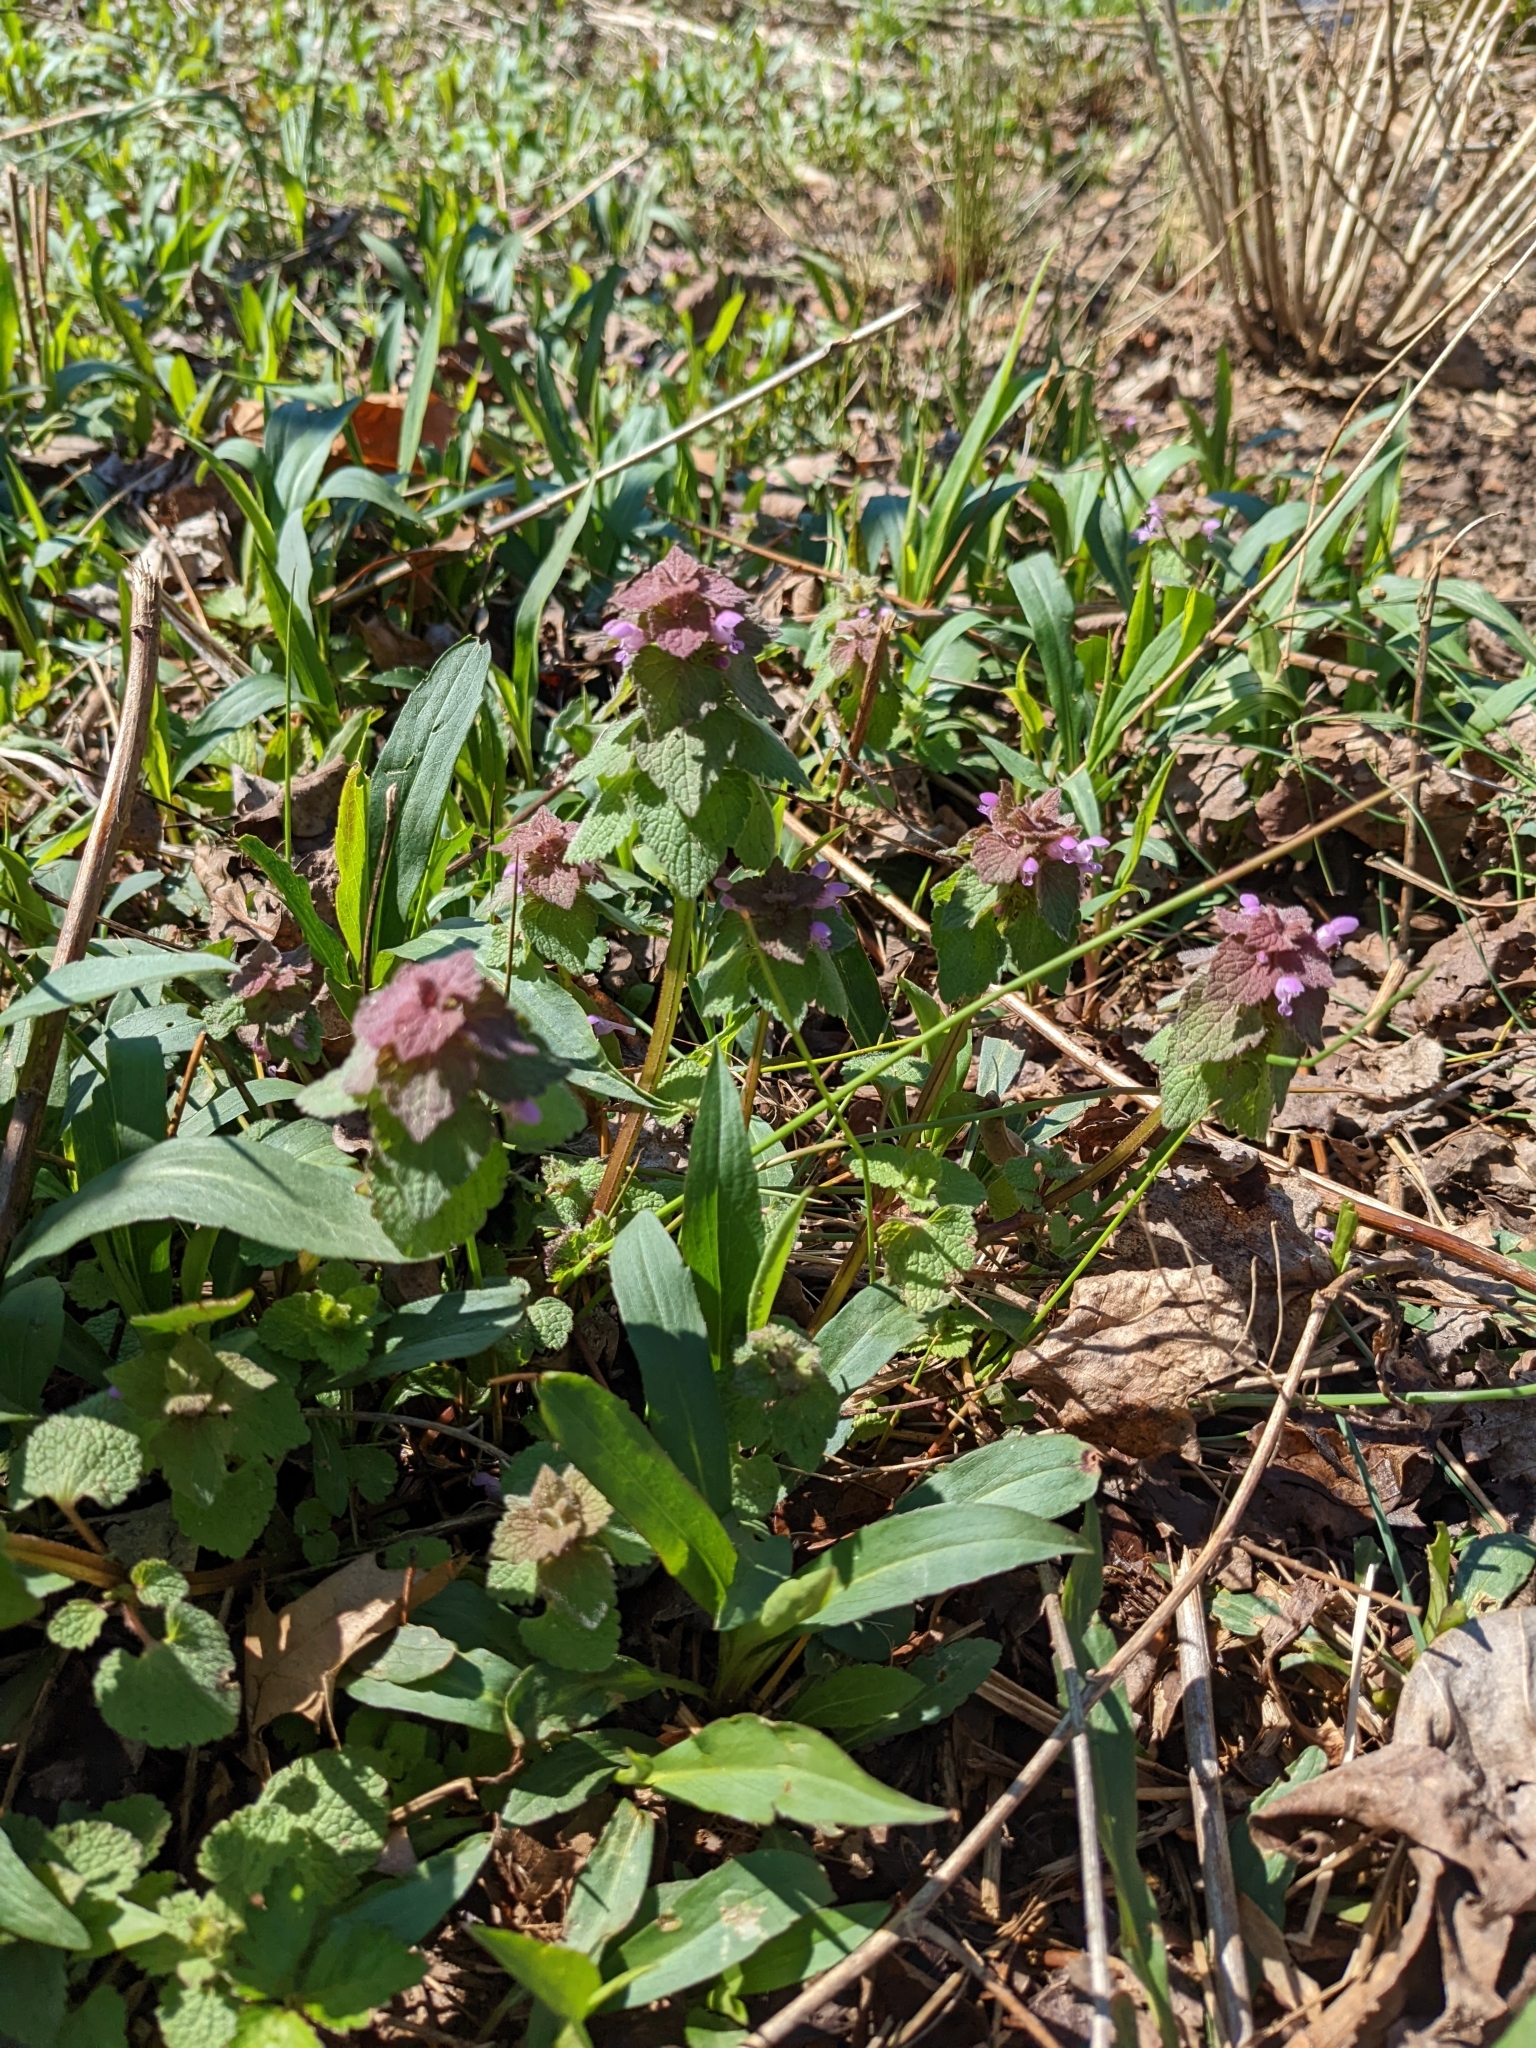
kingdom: Plantae
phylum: Tracheophyta
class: Magnoliopsida
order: Lamiales
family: Lamiaceae
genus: Lamium
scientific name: Lamium purpureum
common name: Red dead-nettle
